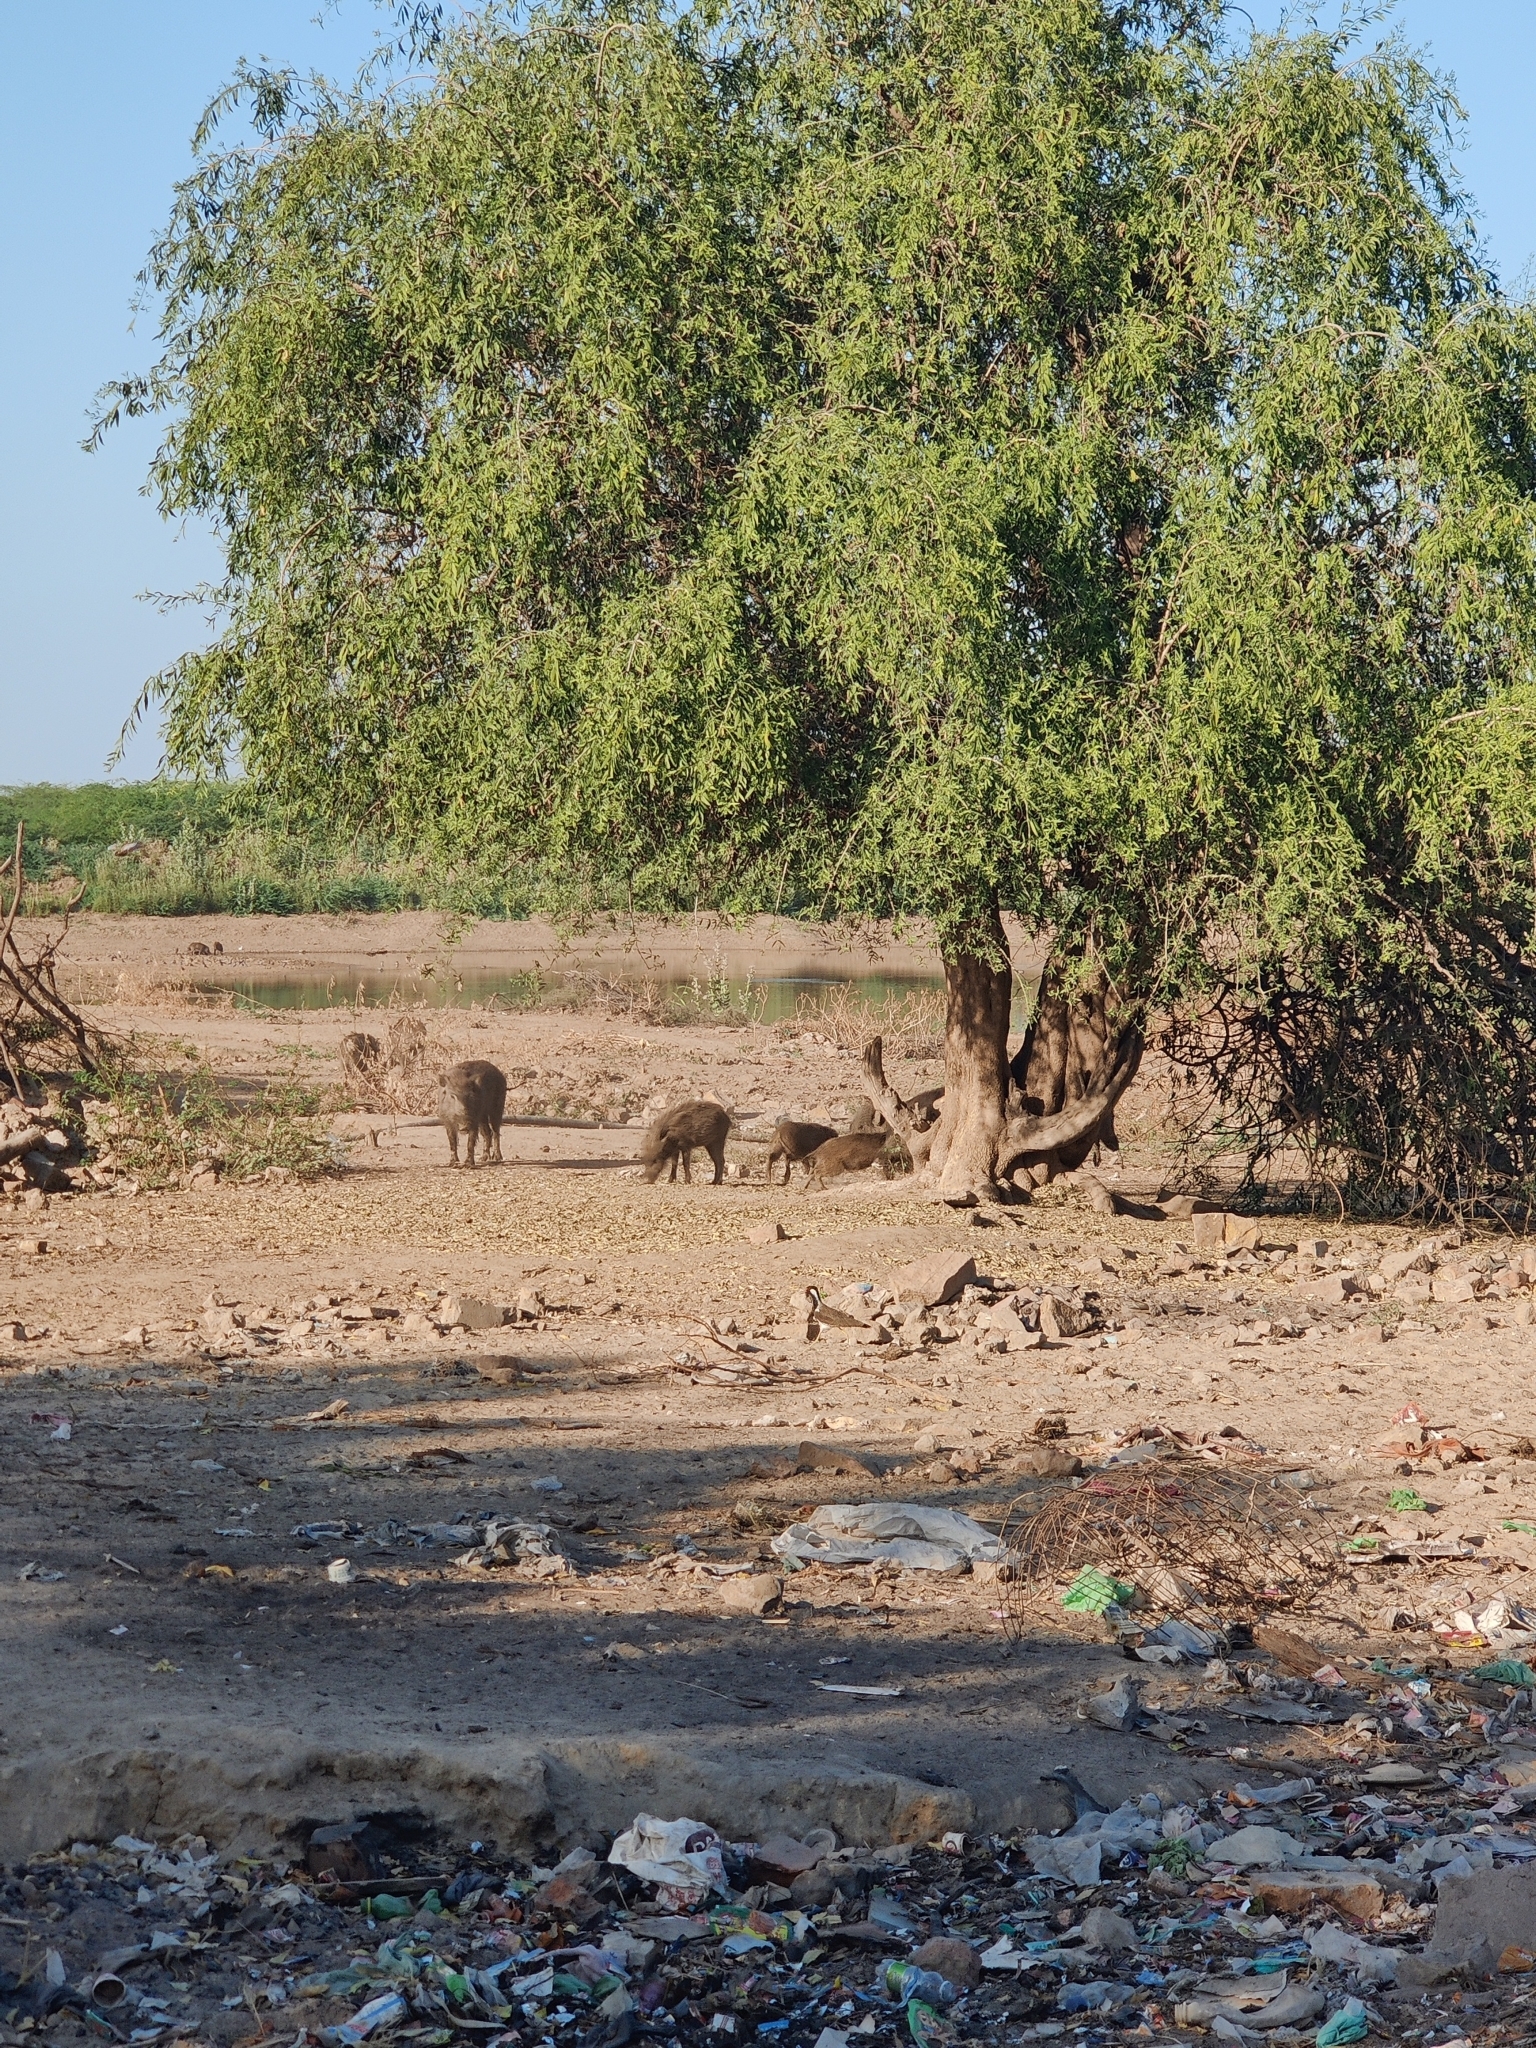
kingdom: Animalia
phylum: Chordata
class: Mammalia
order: Artiodactyla
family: Suidae
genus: Sus
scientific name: Sus scrofa
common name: Wild boar
